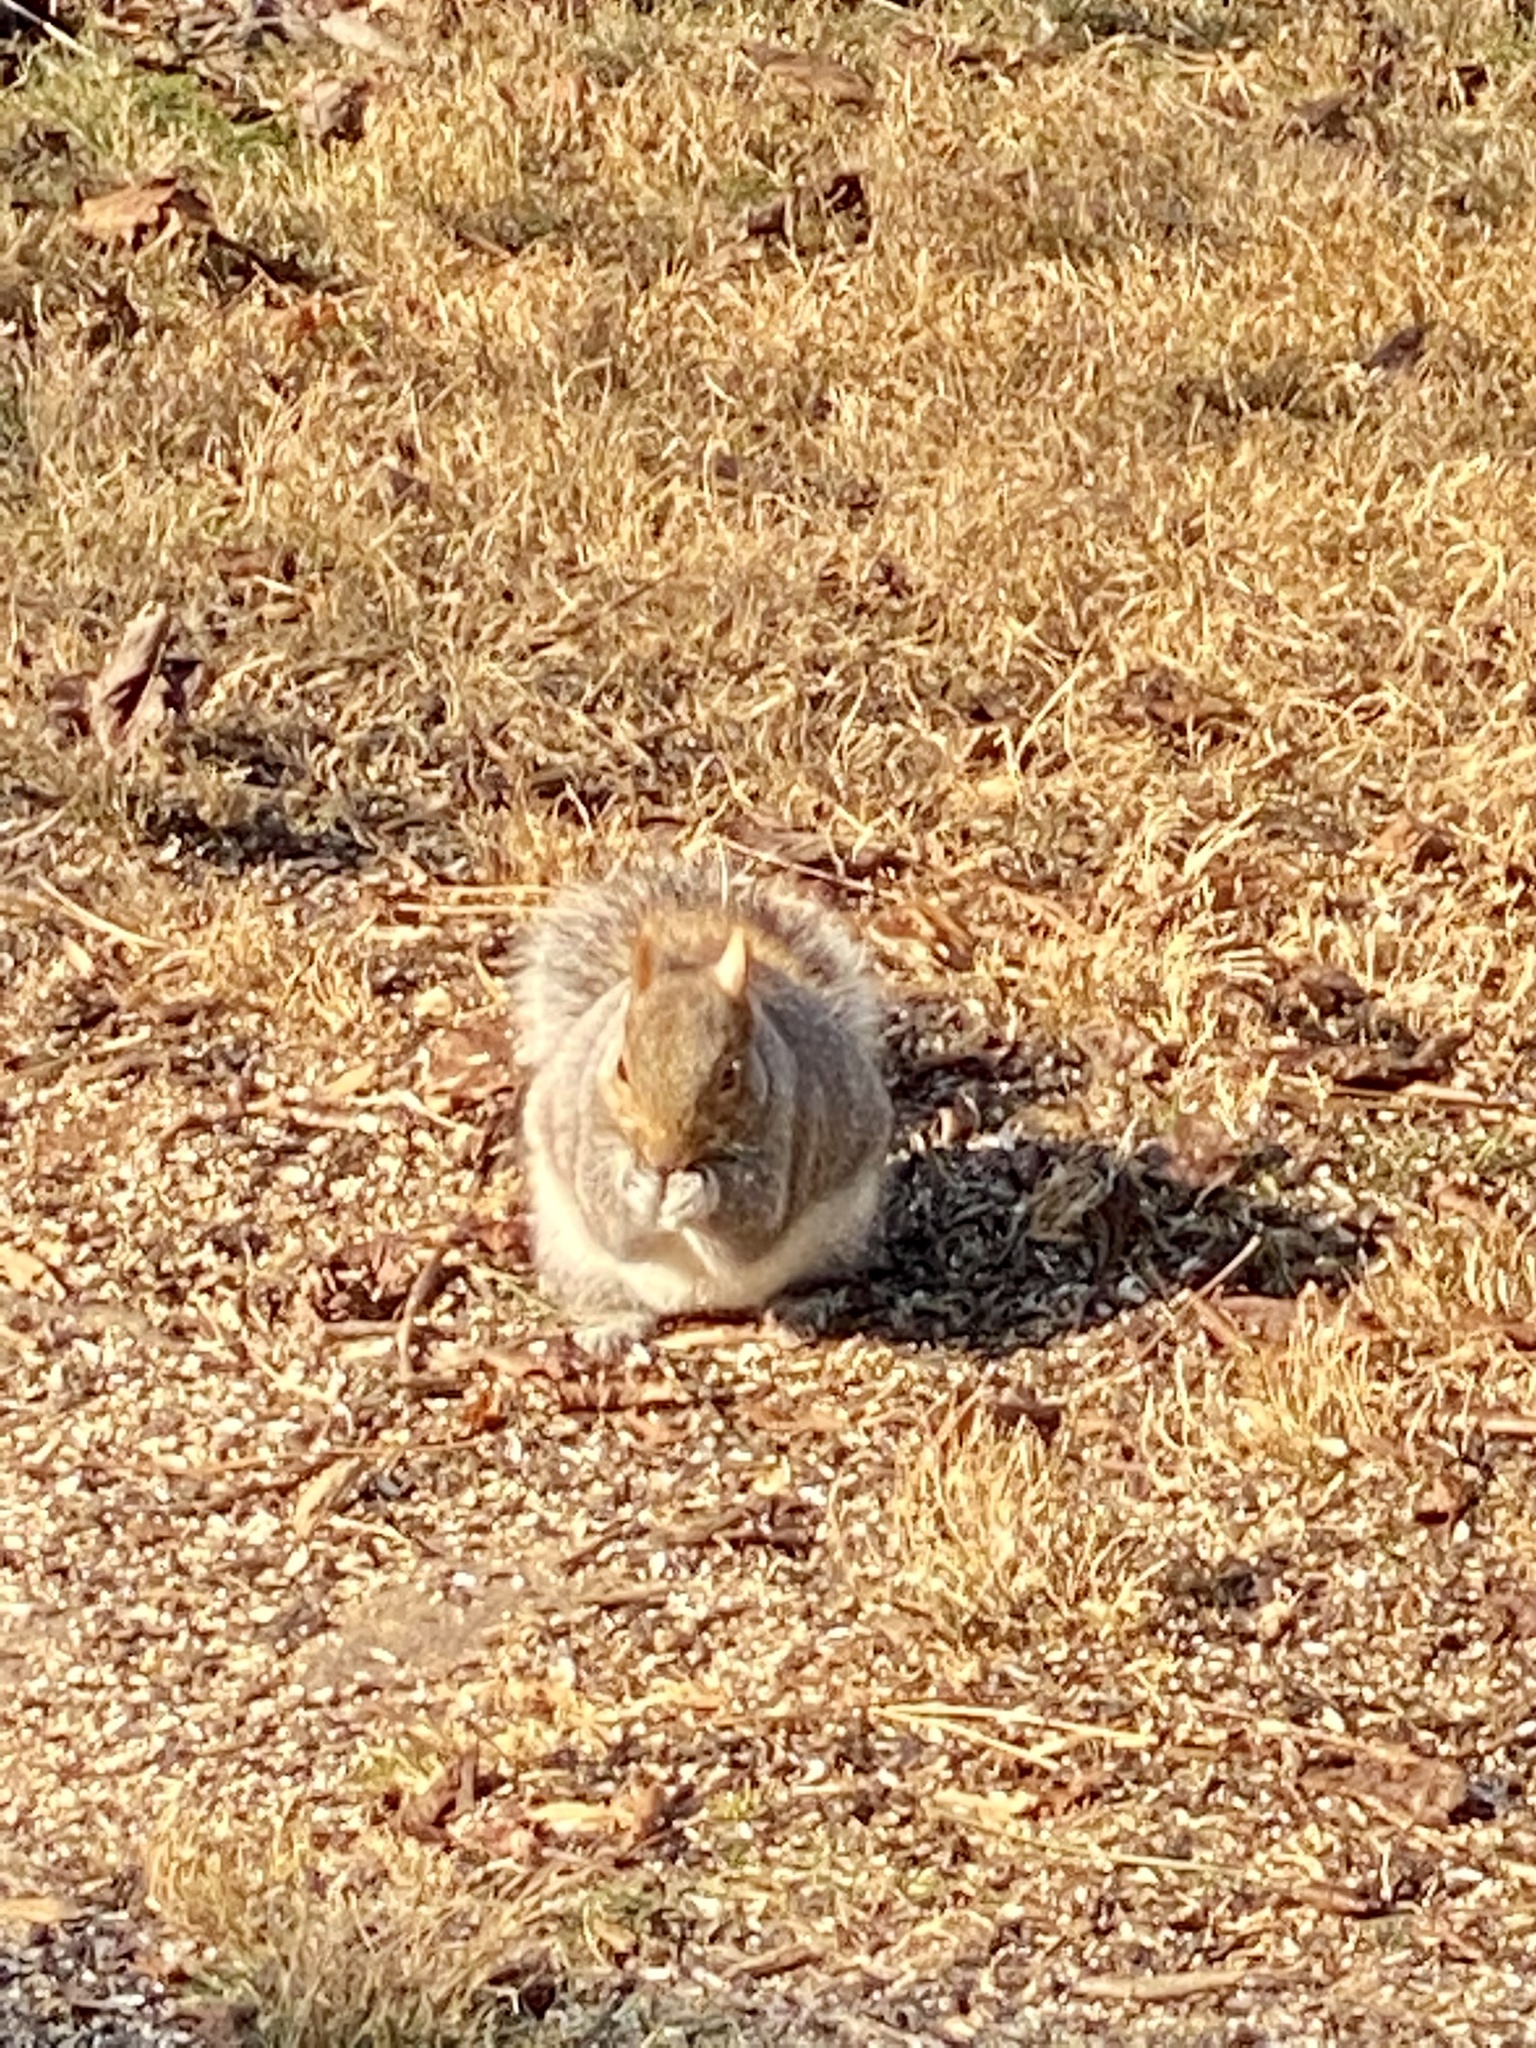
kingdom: Animalia
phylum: Chordata
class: Mammalia
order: Rodentia
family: Sciuridae
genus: Sciurus
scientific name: Sciurus carolinensis
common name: Eastern gray squirrel
